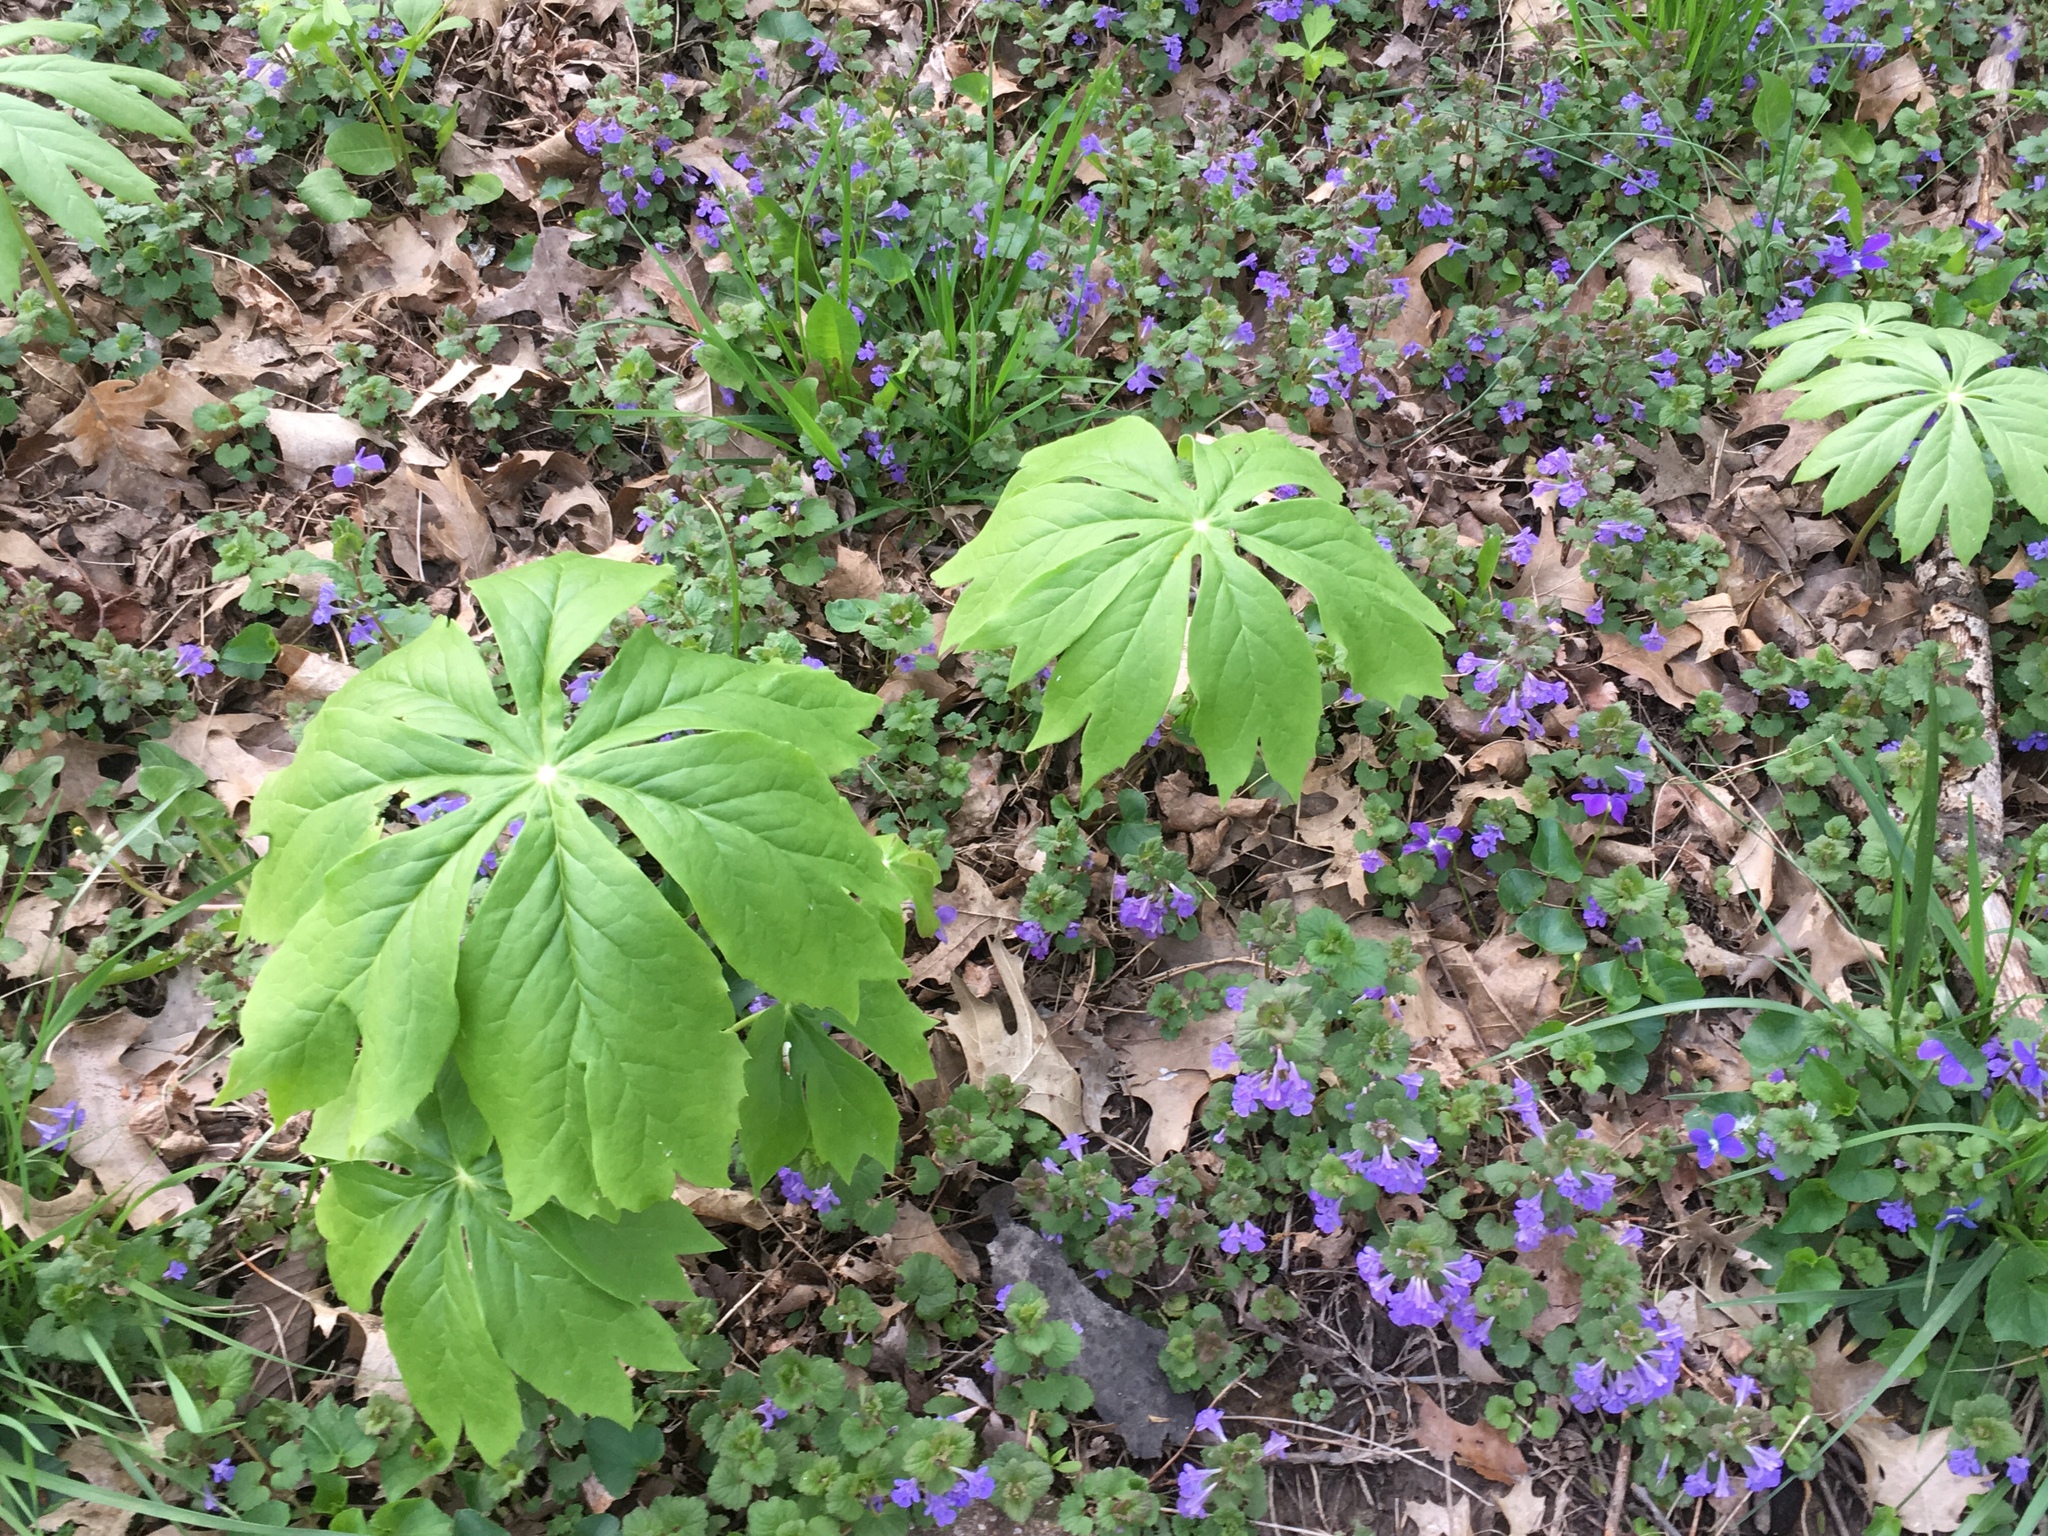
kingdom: Plantae
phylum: Tracheophyta
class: Magnoliopsida
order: Ranunculales
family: Berberidaceae
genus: Podophyllum
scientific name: Podophyllum peltatum
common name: Wild mandrake
